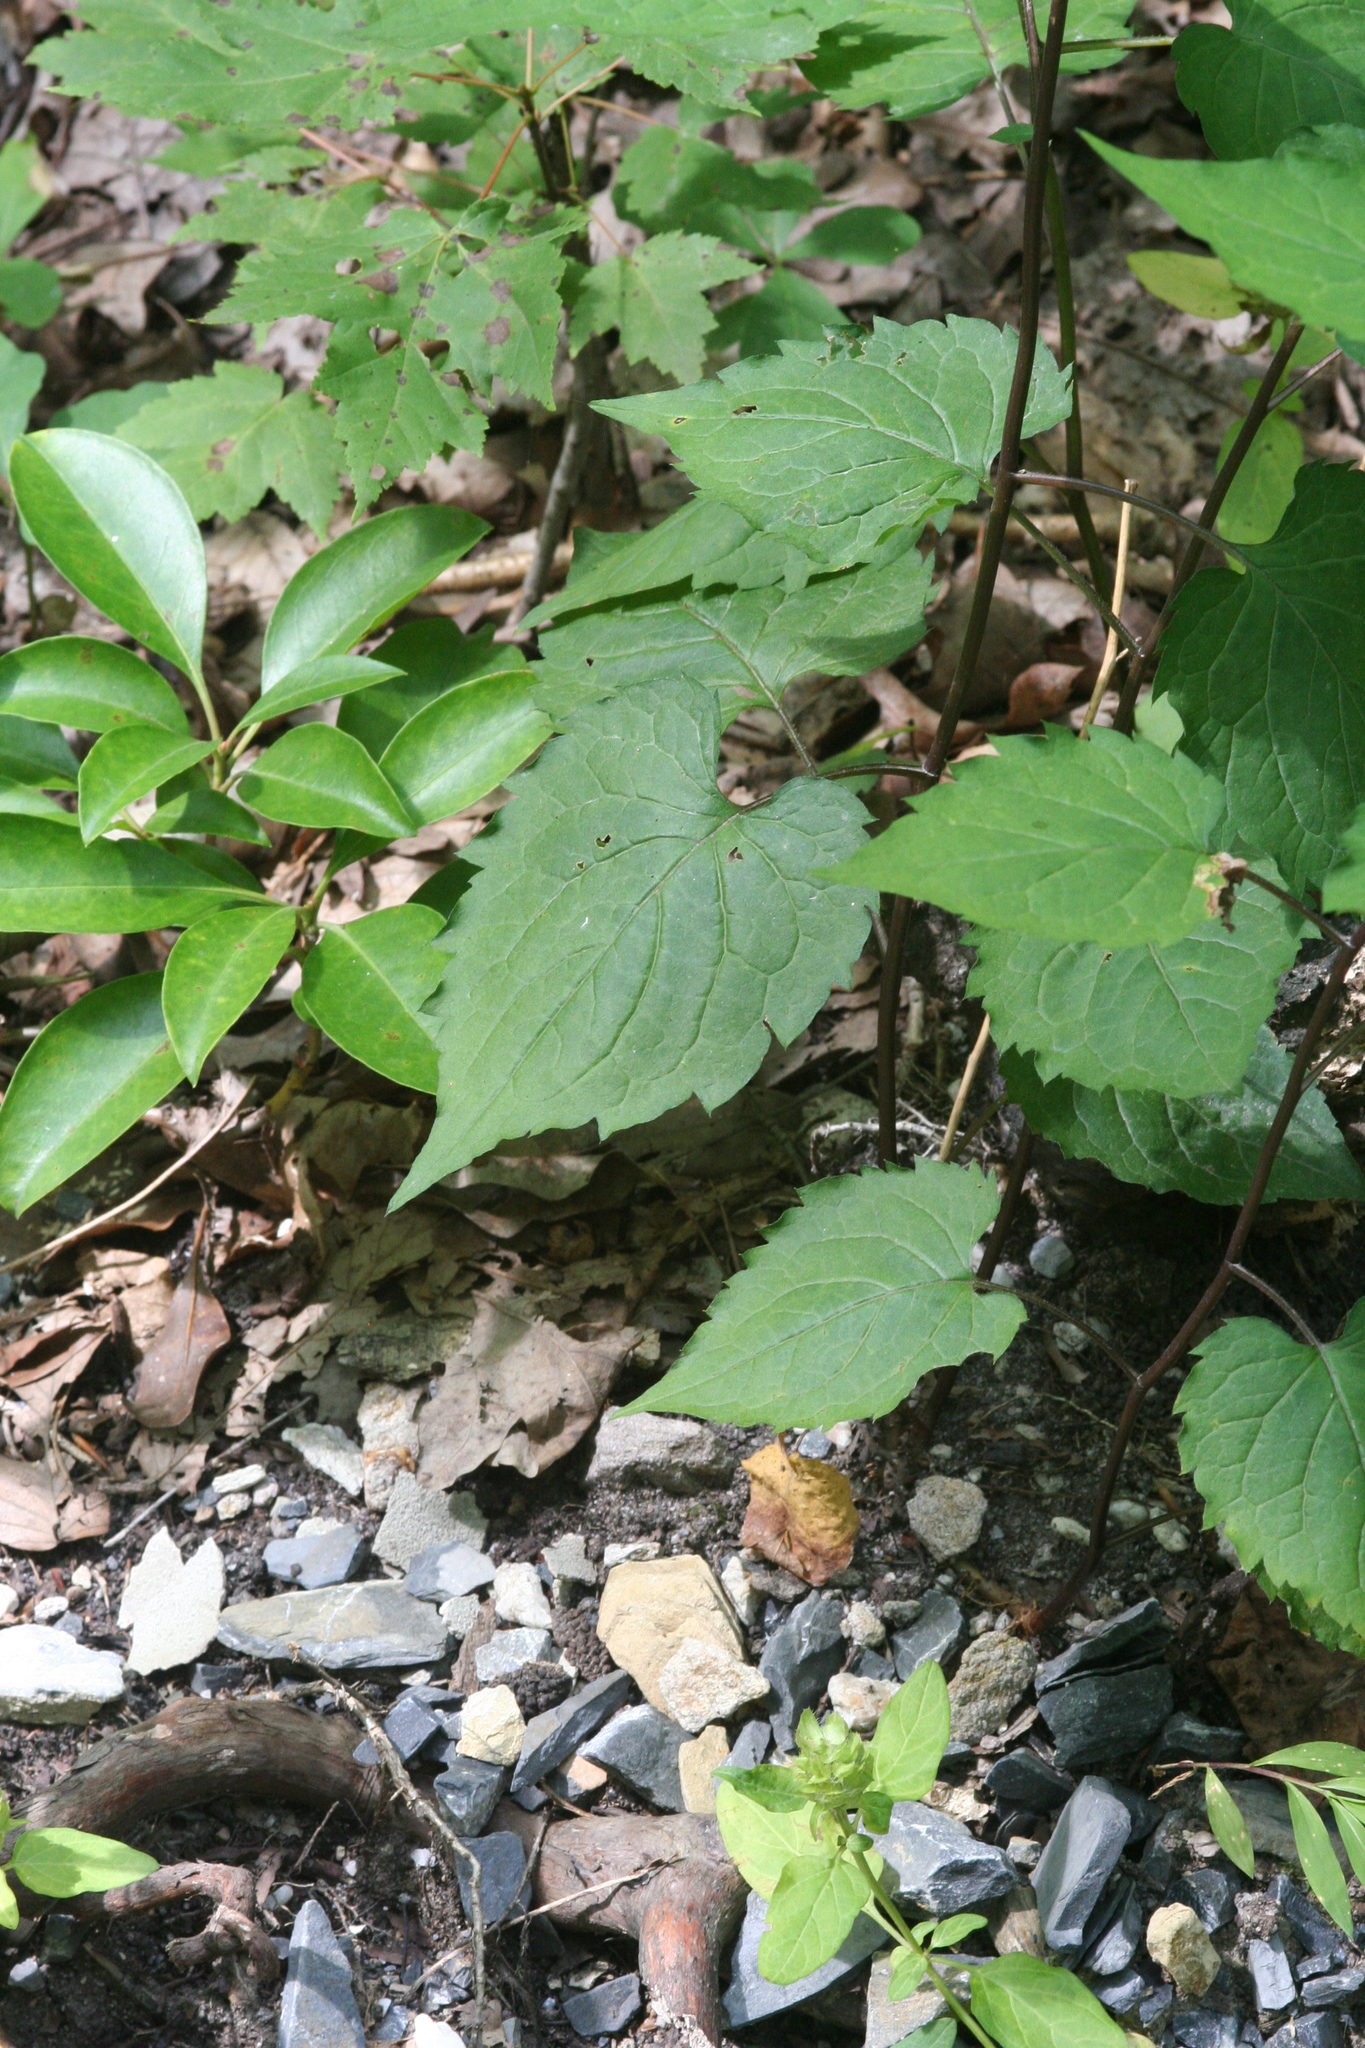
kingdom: Plantae
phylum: Tracheophyta
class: Magnoliopsida
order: Asterales
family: Asteraceae
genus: Eurybia
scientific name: Eurybia divaricata
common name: White wood aster
